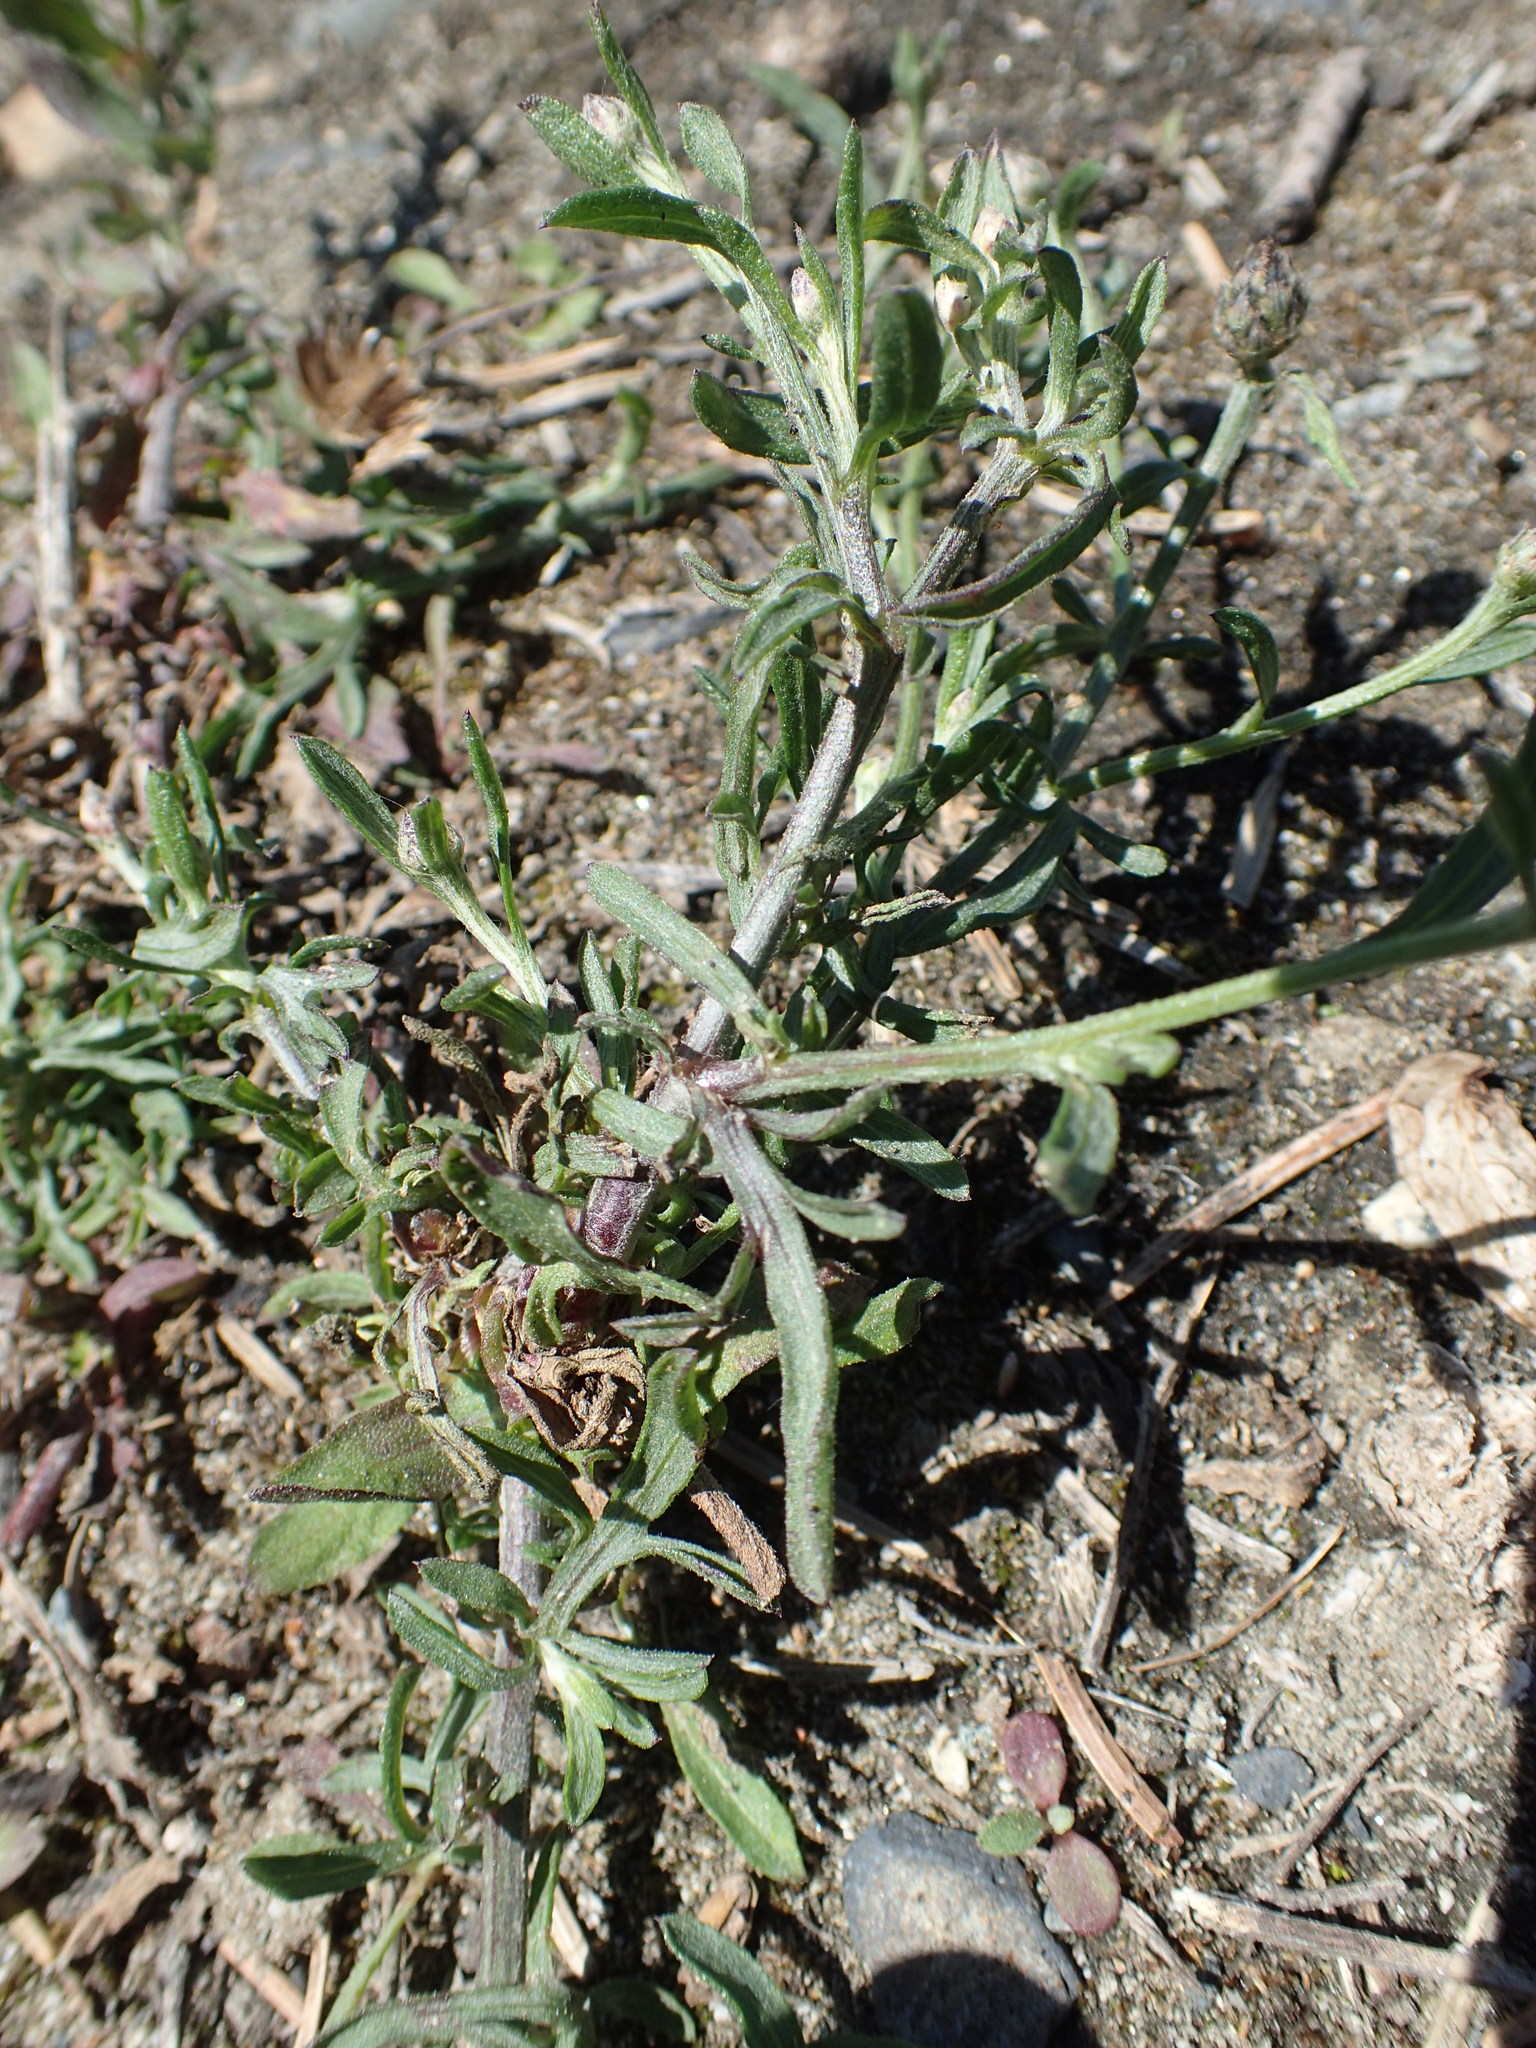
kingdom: Plantae
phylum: Tracheophyta
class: Magnoliopsida
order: Asterales
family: Asteraceae
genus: Centaurea
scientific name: Centaurea australis
